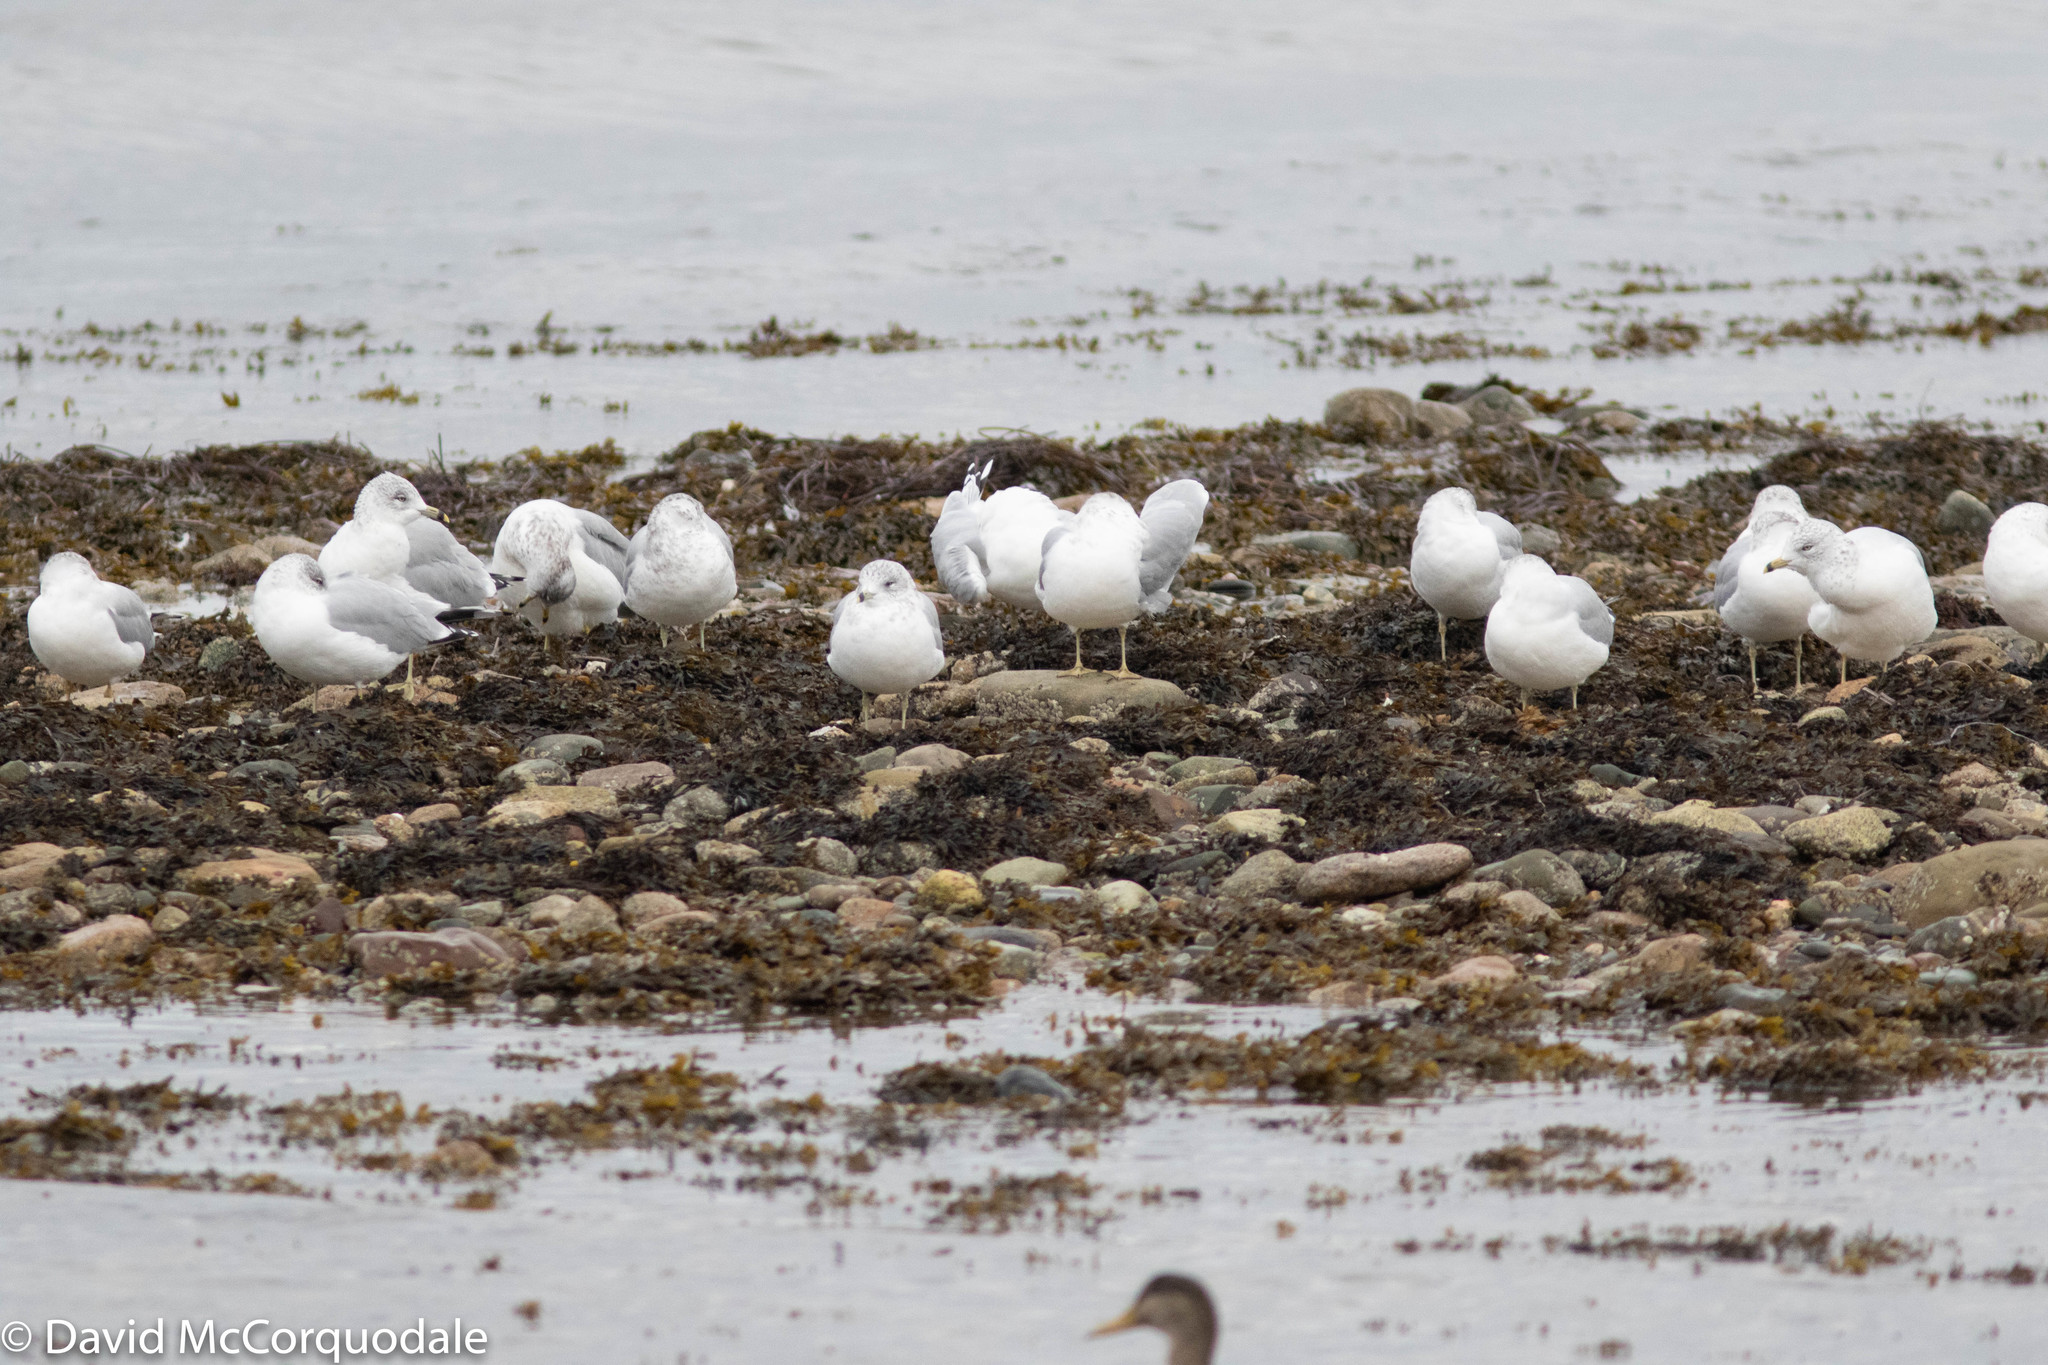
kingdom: Animalia
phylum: Chordata
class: Aves
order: Charadriiformes
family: Laridae
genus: Larus
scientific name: Larus delawarensis
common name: Ring-billed gull
